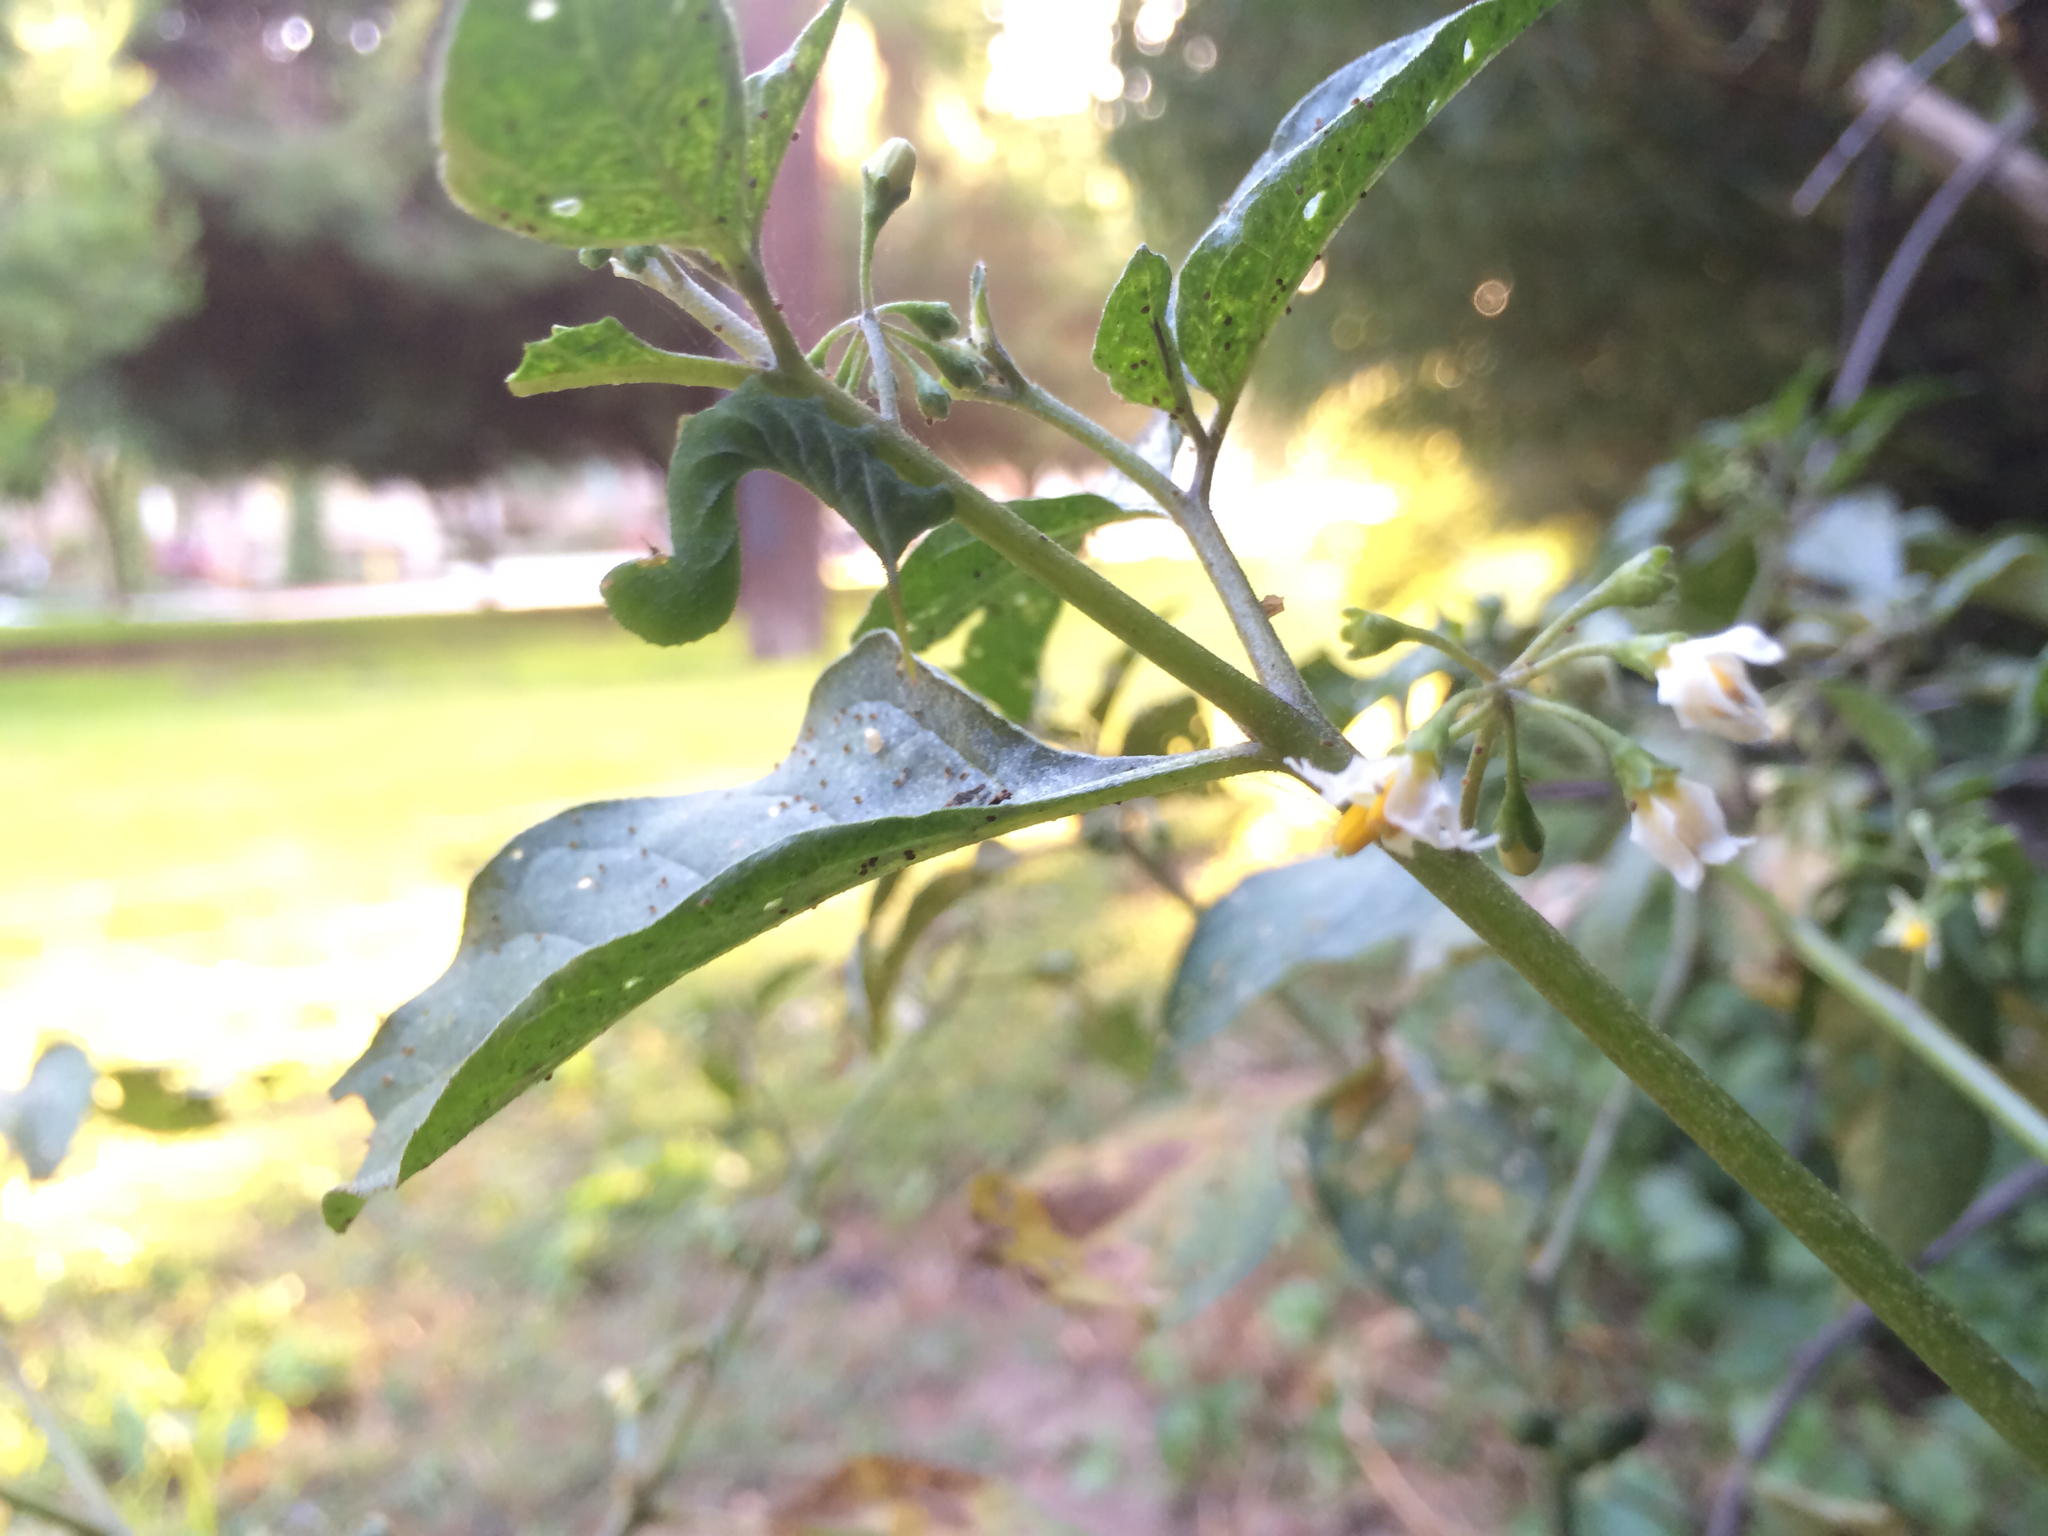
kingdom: Animalia
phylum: Arthropoda
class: Insecta
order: Lepidoptera
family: Sphingidae
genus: Manduca
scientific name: Manduca sexta
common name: Carolina sphinx
